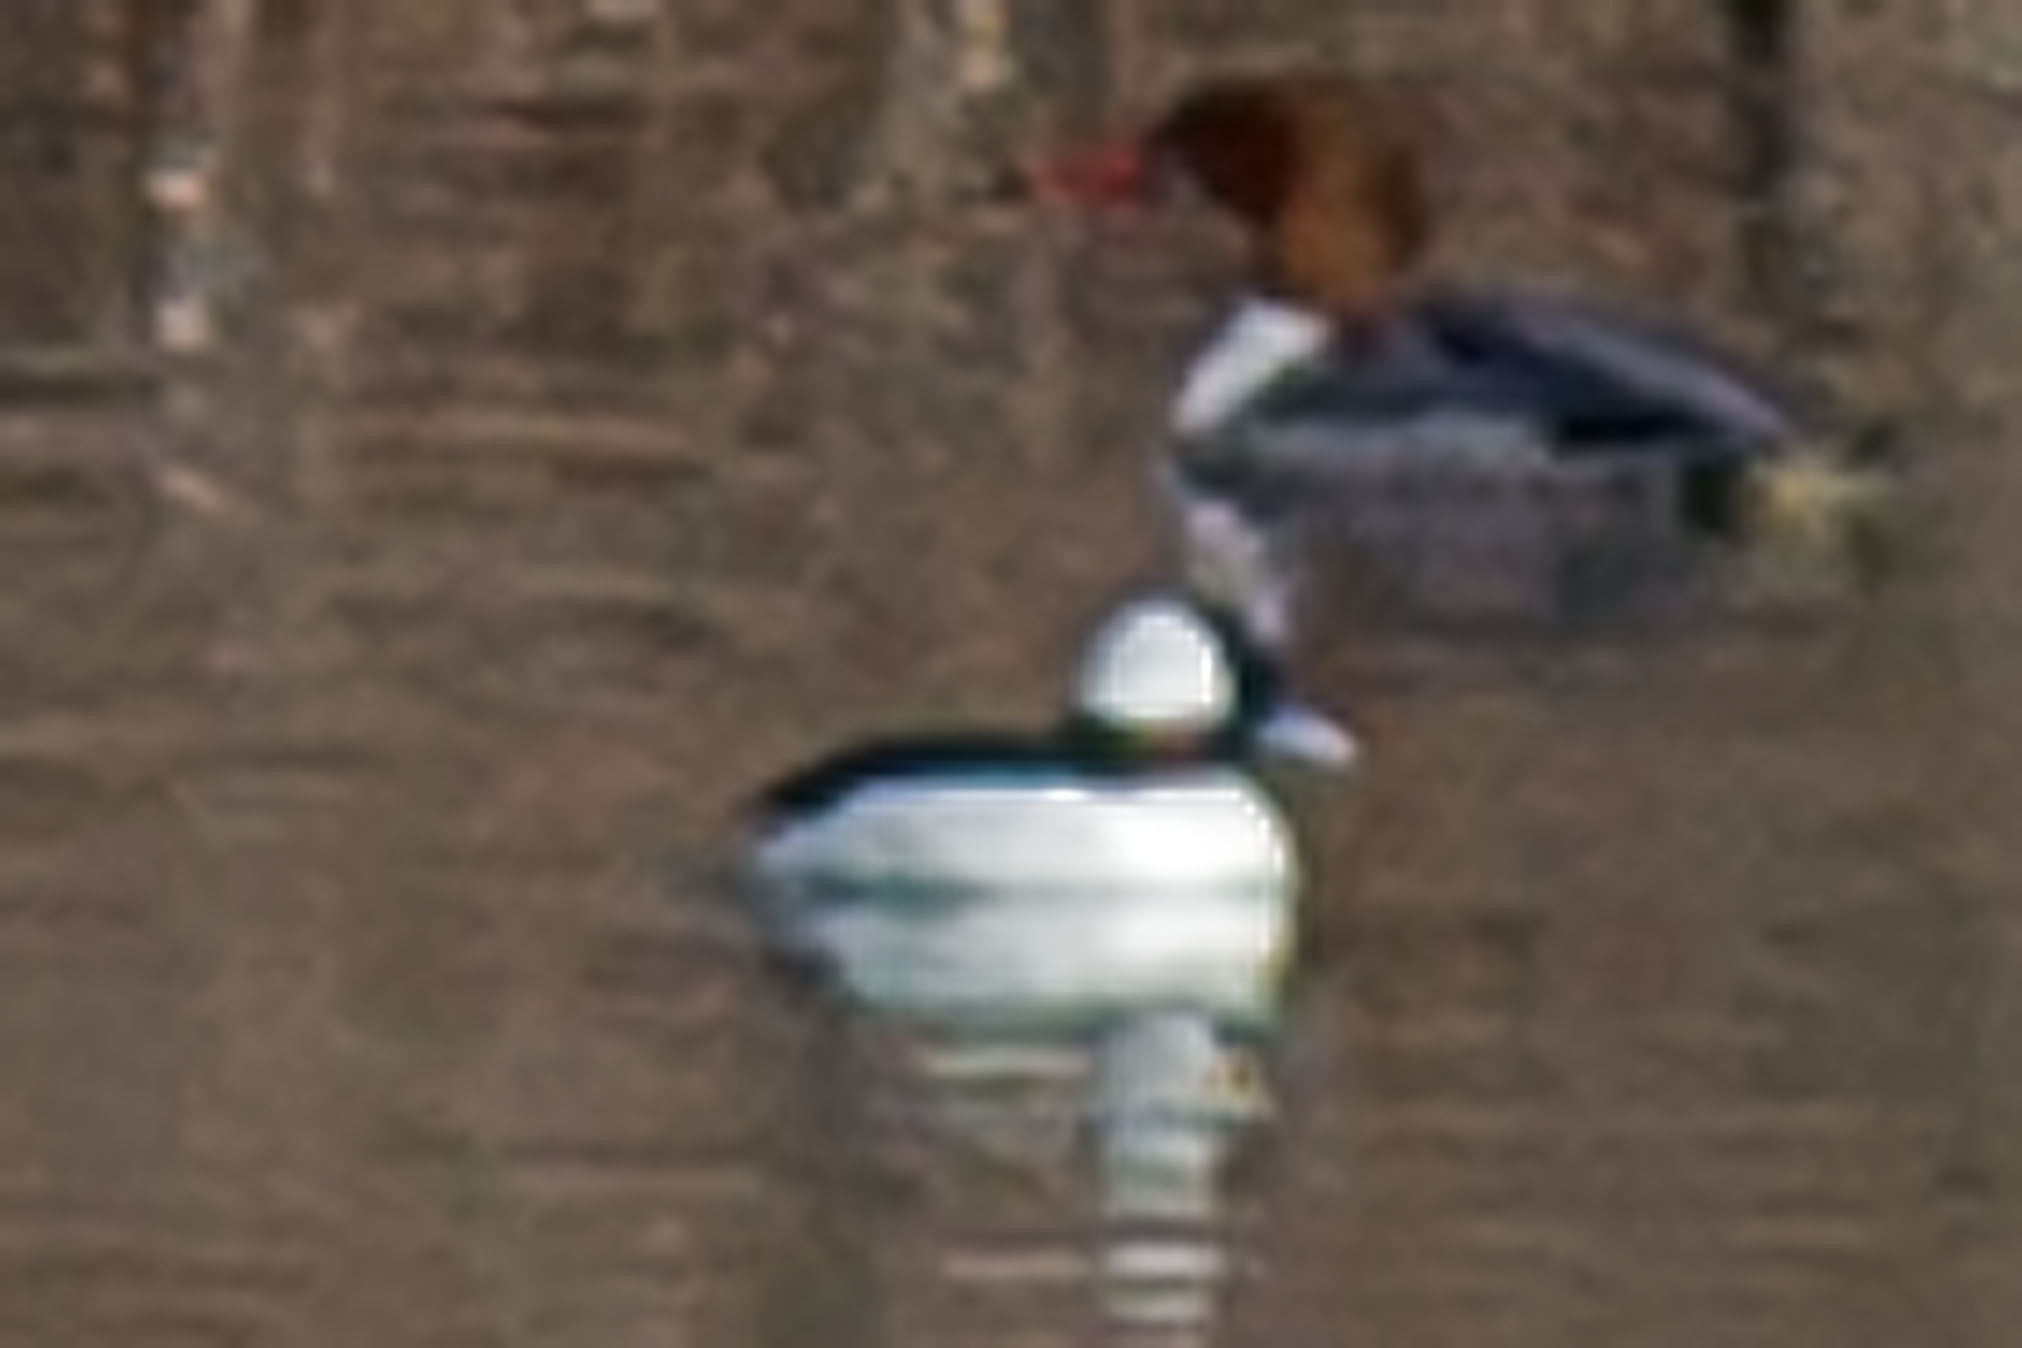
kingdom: Animalia
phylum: Chordata
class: Aves
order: Anseriformes
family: Anatidae
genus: Bucephala
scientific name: Bucephala albeola
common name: Bufflehead
